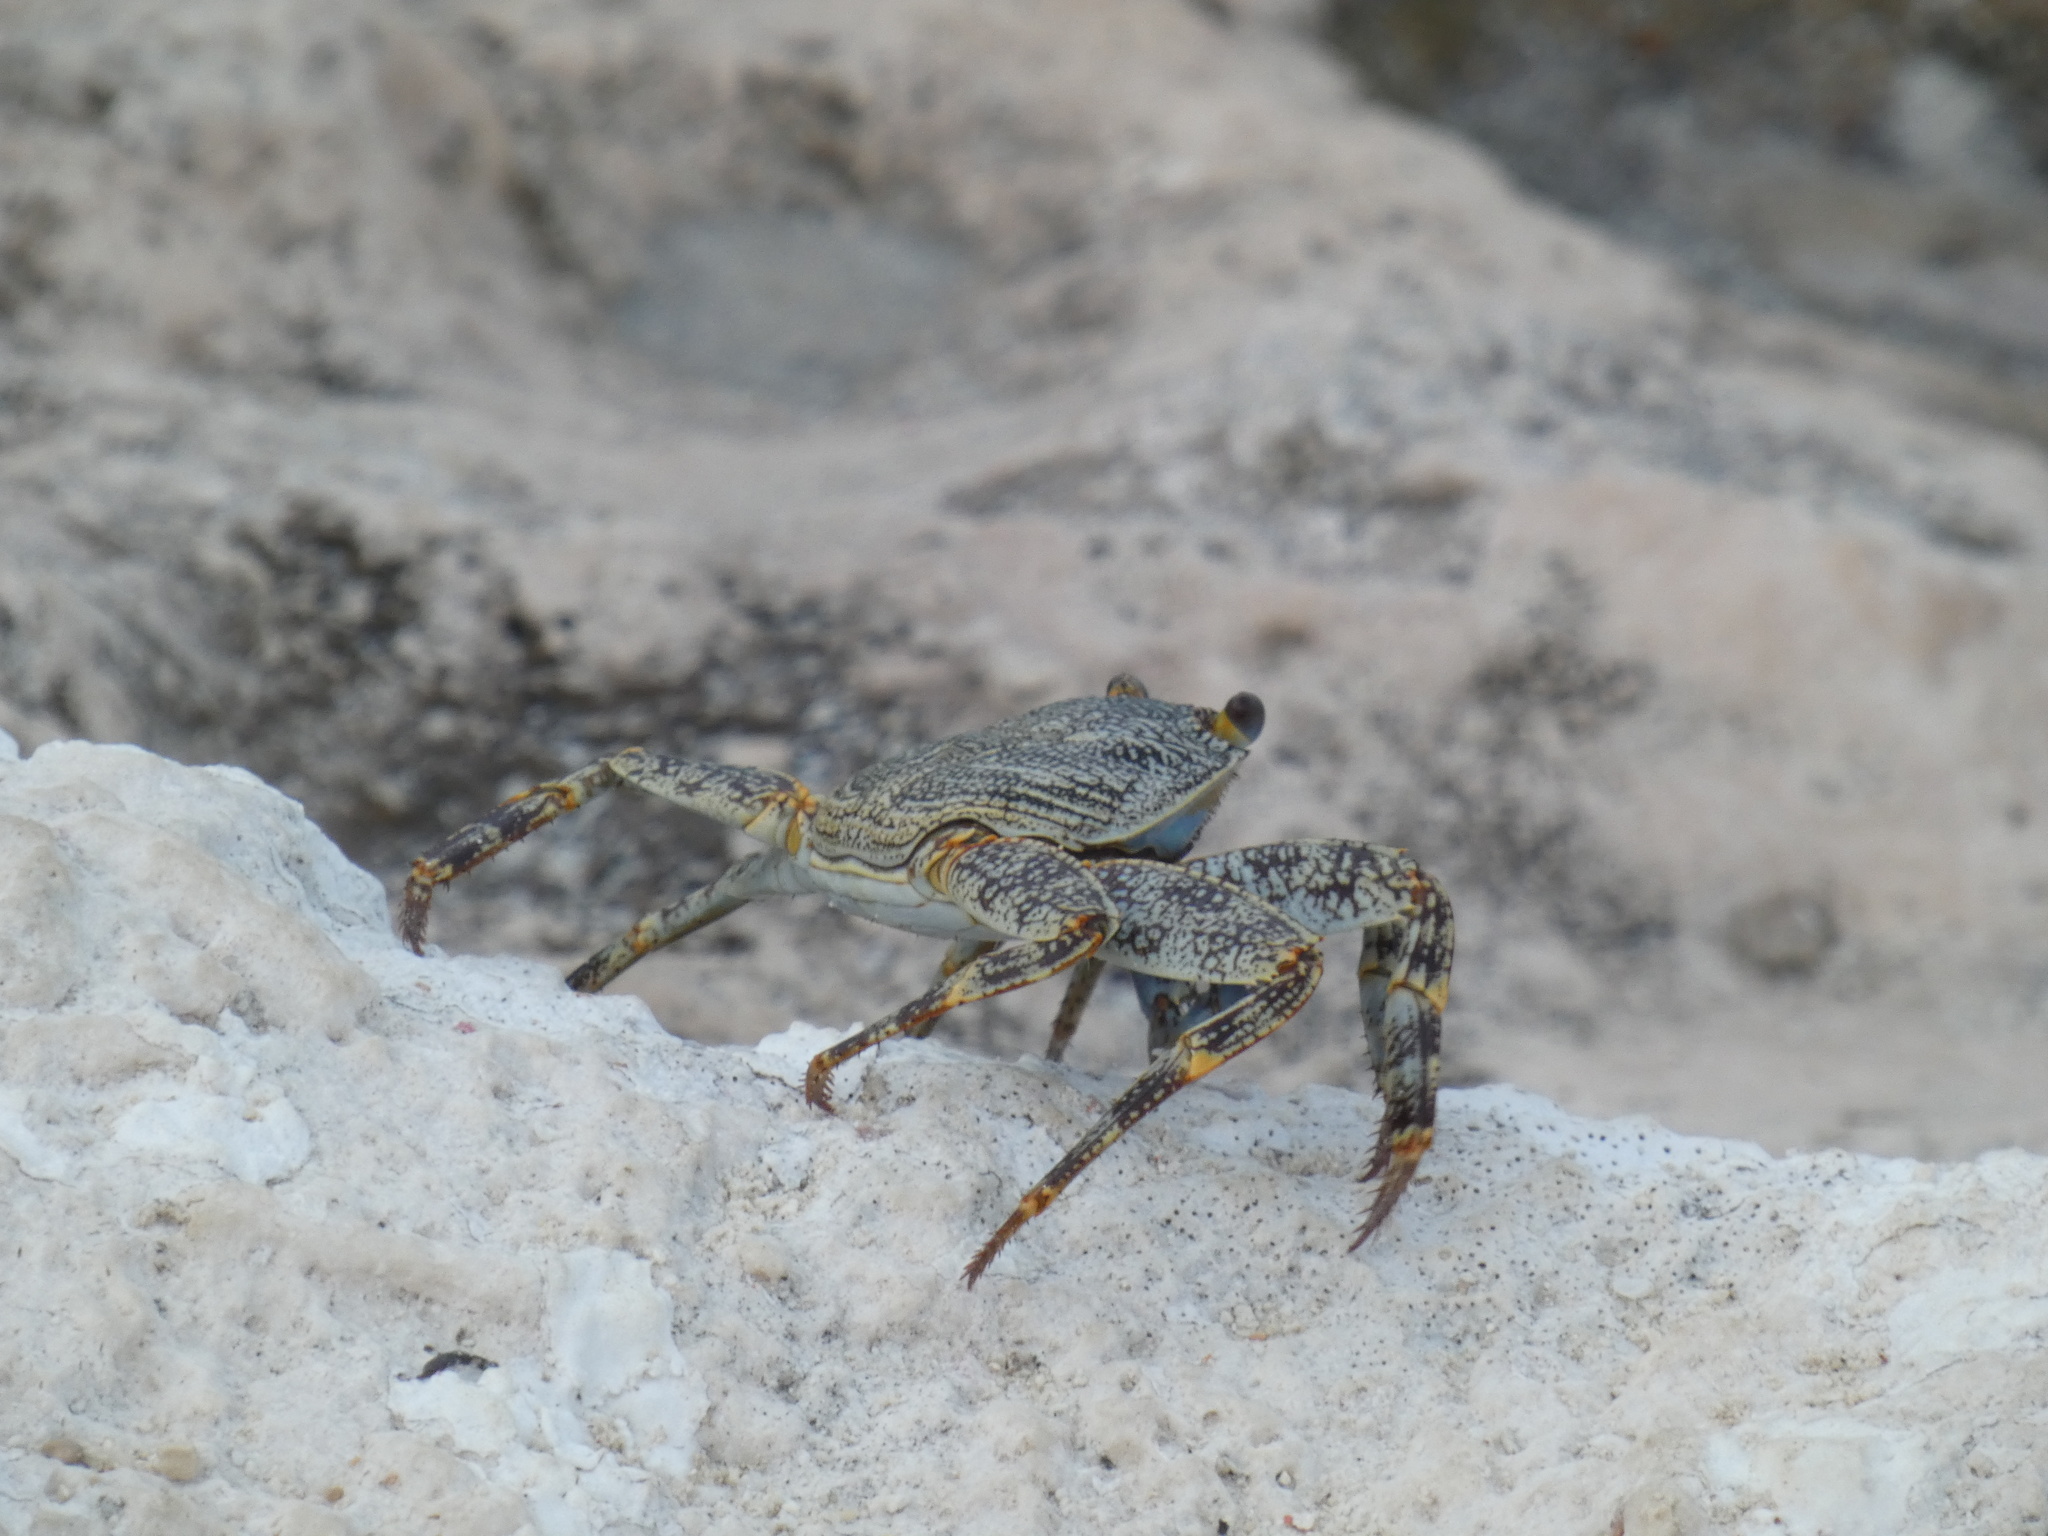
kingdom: Animalia
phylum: Arthropoda
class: Malacostraca
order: Decapoda
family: Grapsidae
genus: Grapsus
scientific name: Grapsus grapsus
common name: Sally lightfoot
